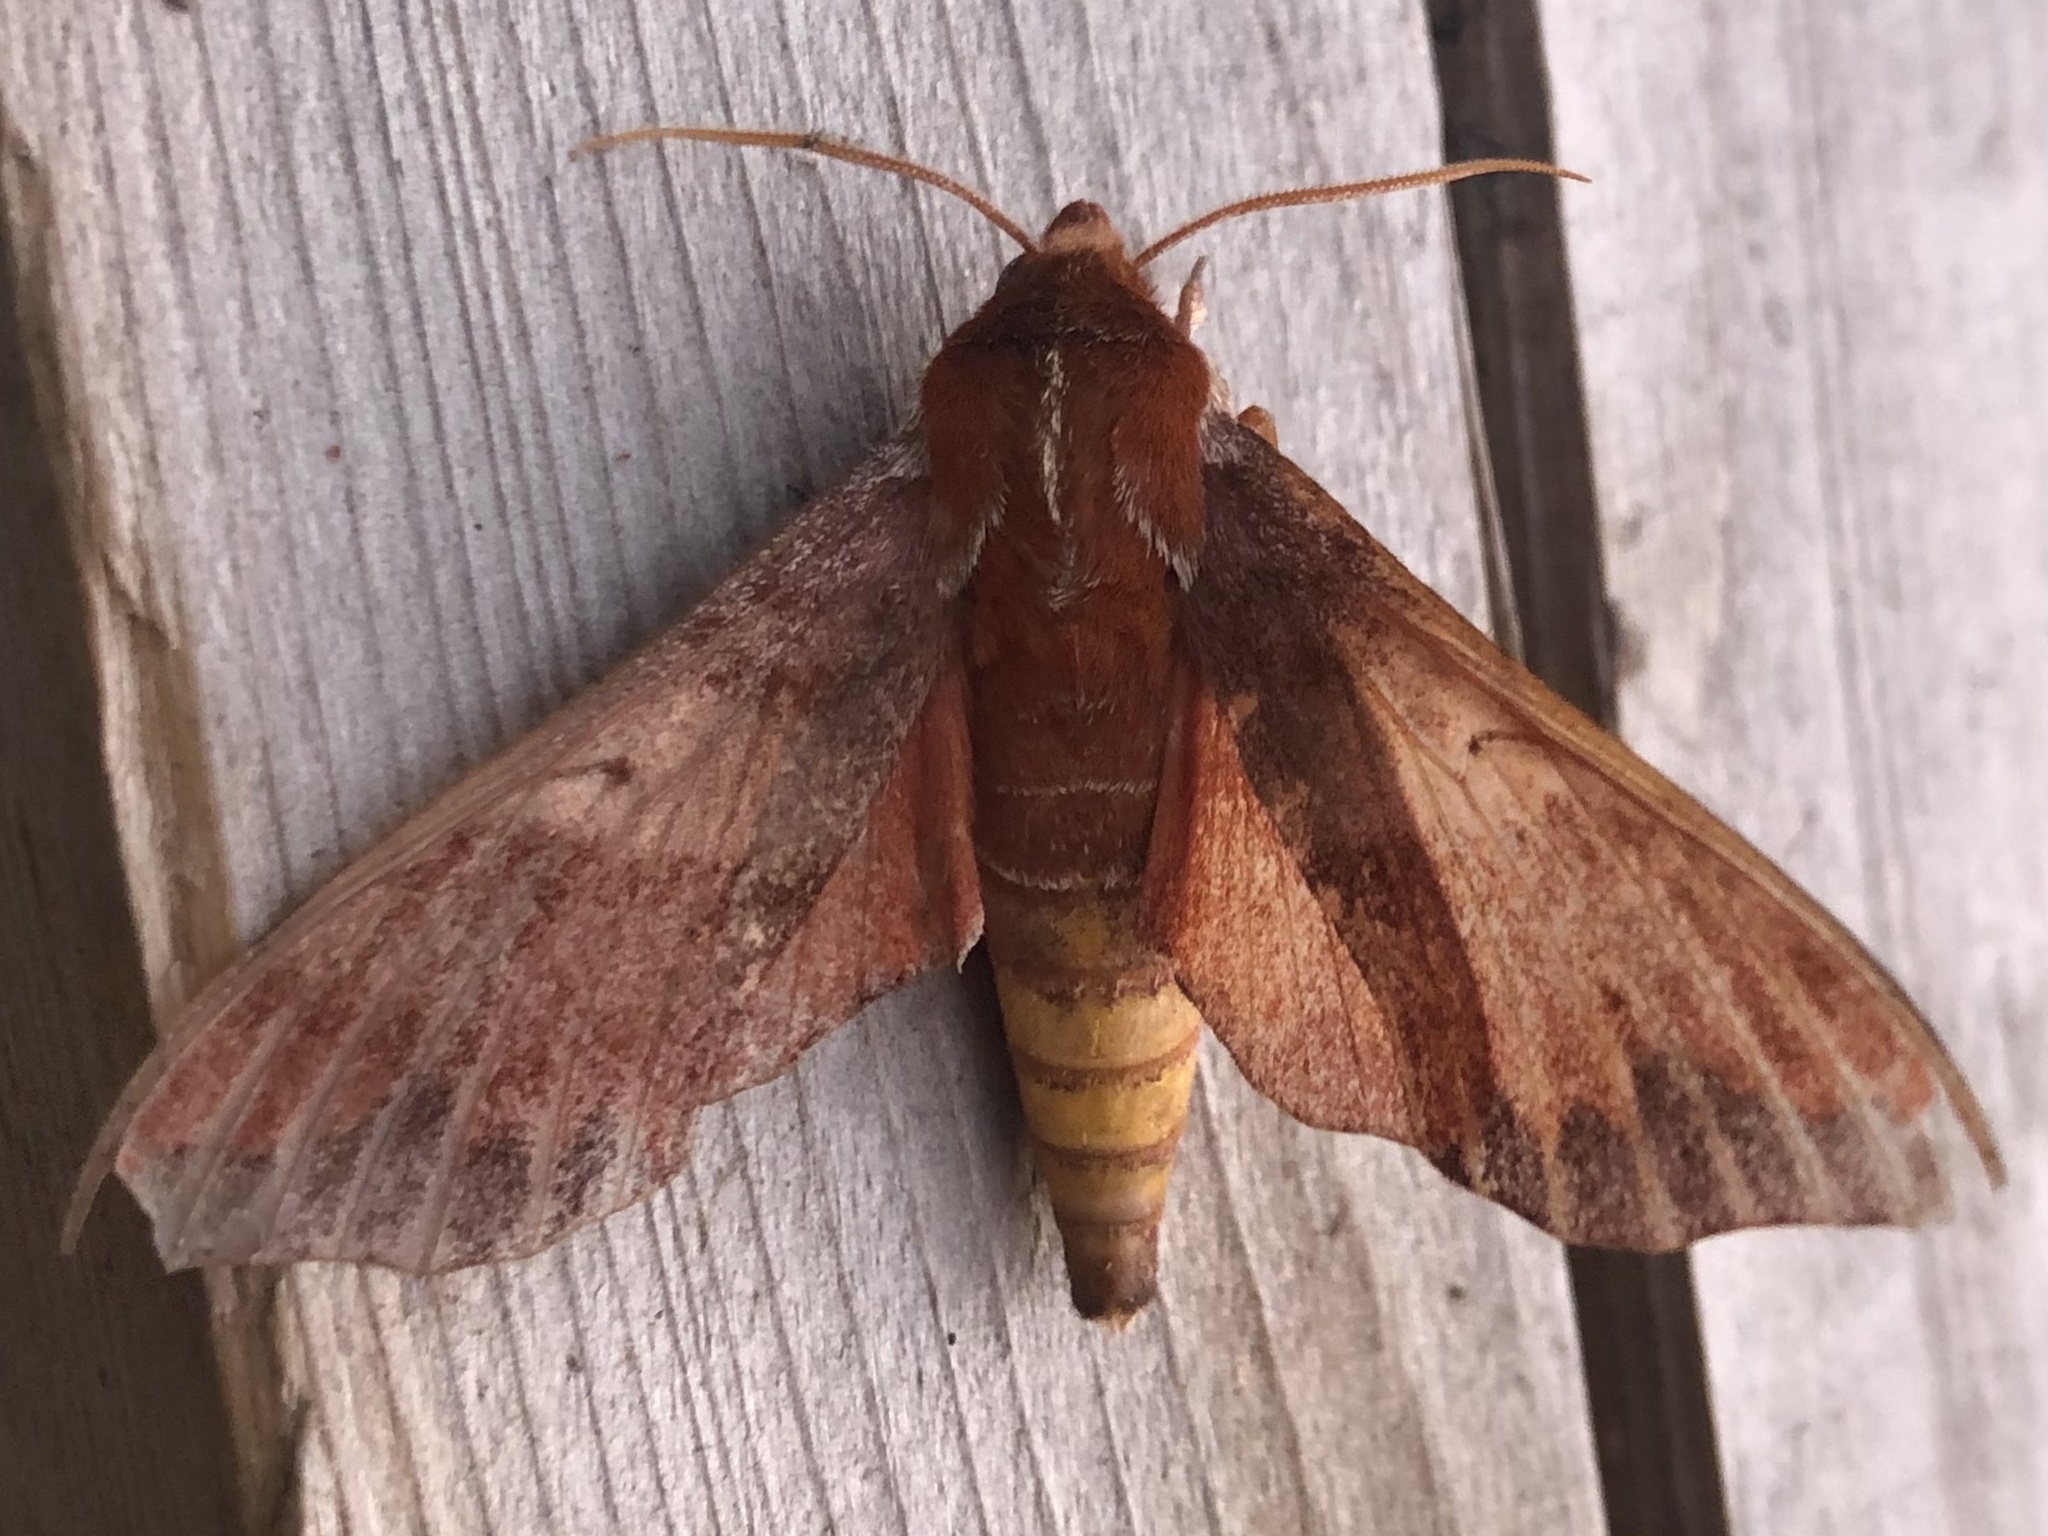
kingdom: Animalia
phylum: Arthropoda
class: Insecta
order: Lepidoptera
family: Sphingidae
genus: Darapsa
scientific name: Darapsa choerilus
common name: Azalea sphinx
